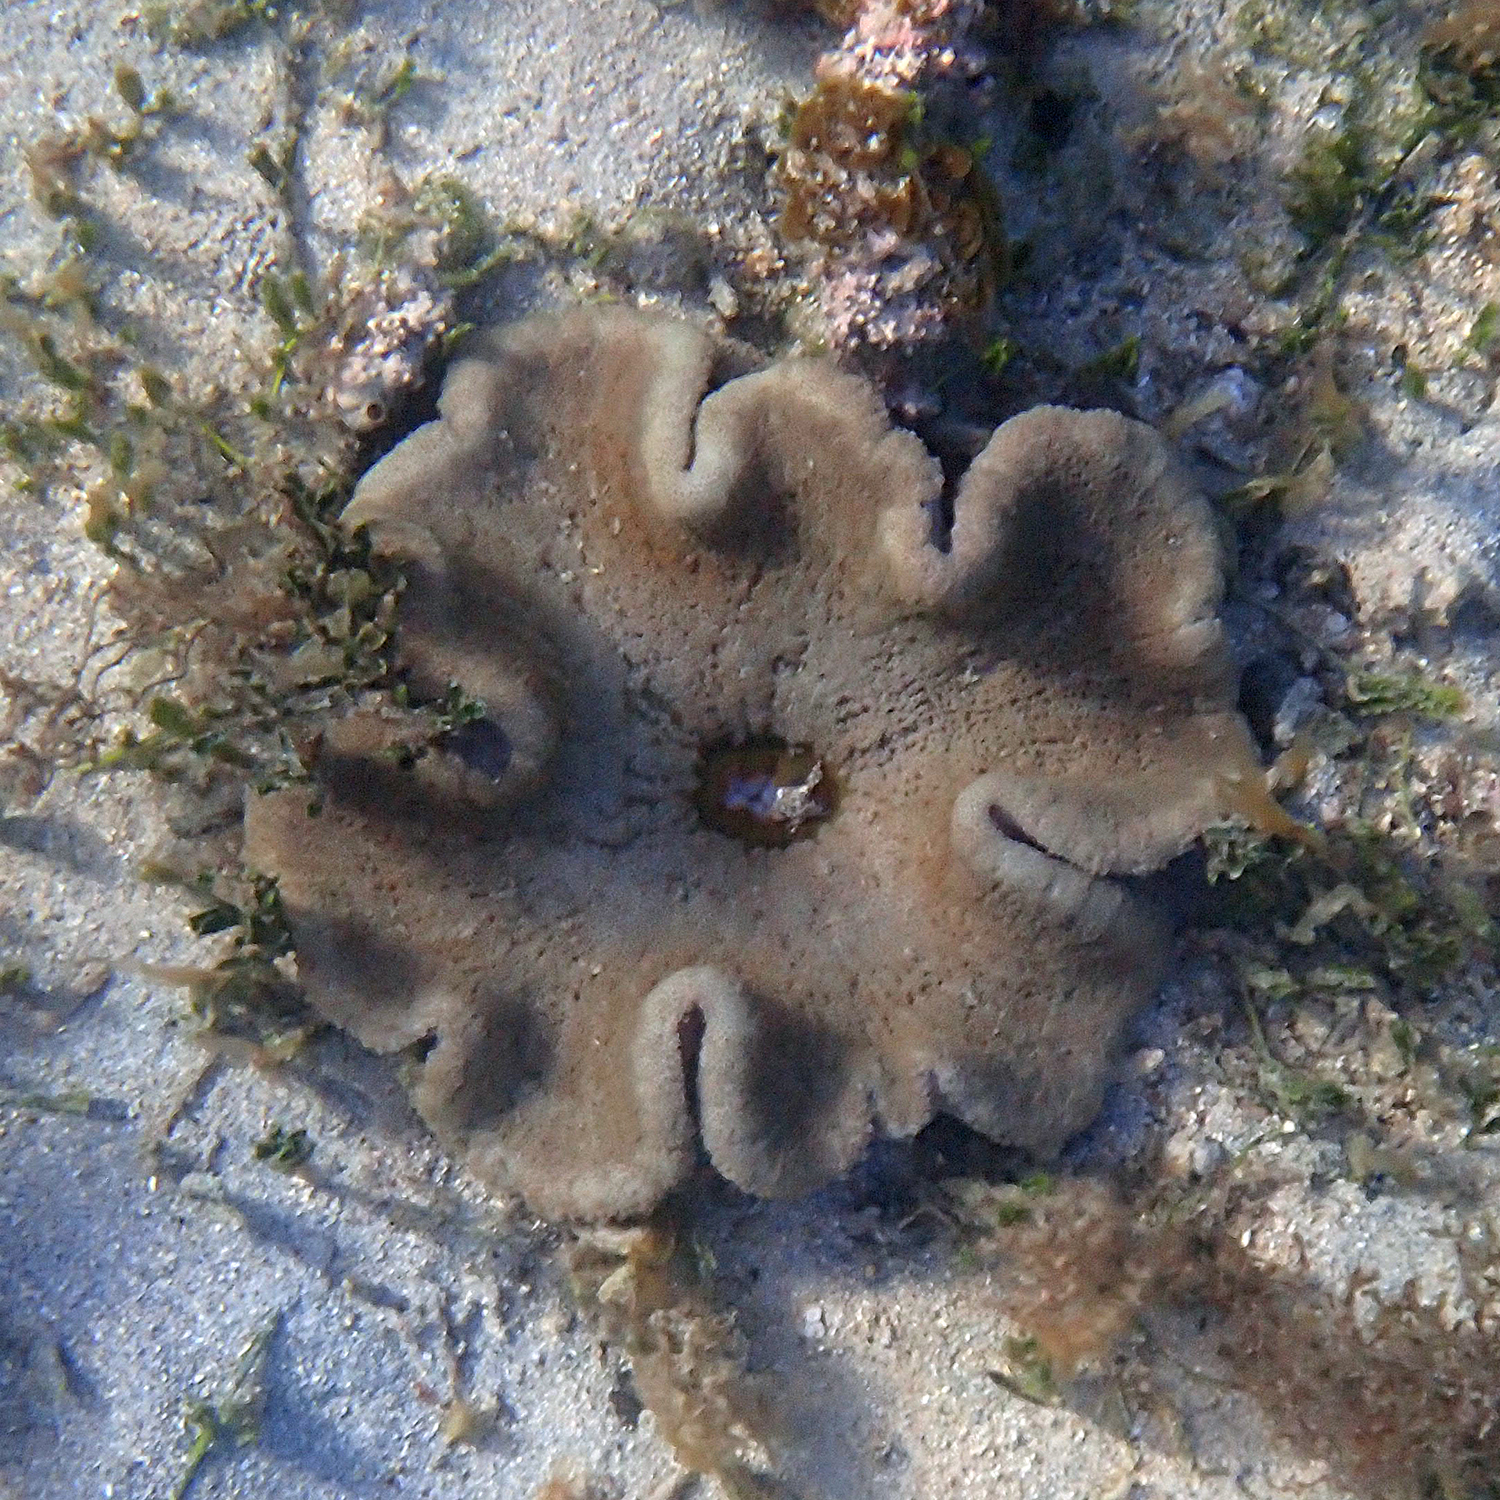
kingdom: Animalia
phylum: Cnidaria
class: Anthozoa
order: Actiniaria
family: Stichodactylidae
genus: Stichodactyla
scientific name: Stichodactyla haddoni
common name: Haddon's sea anemone
